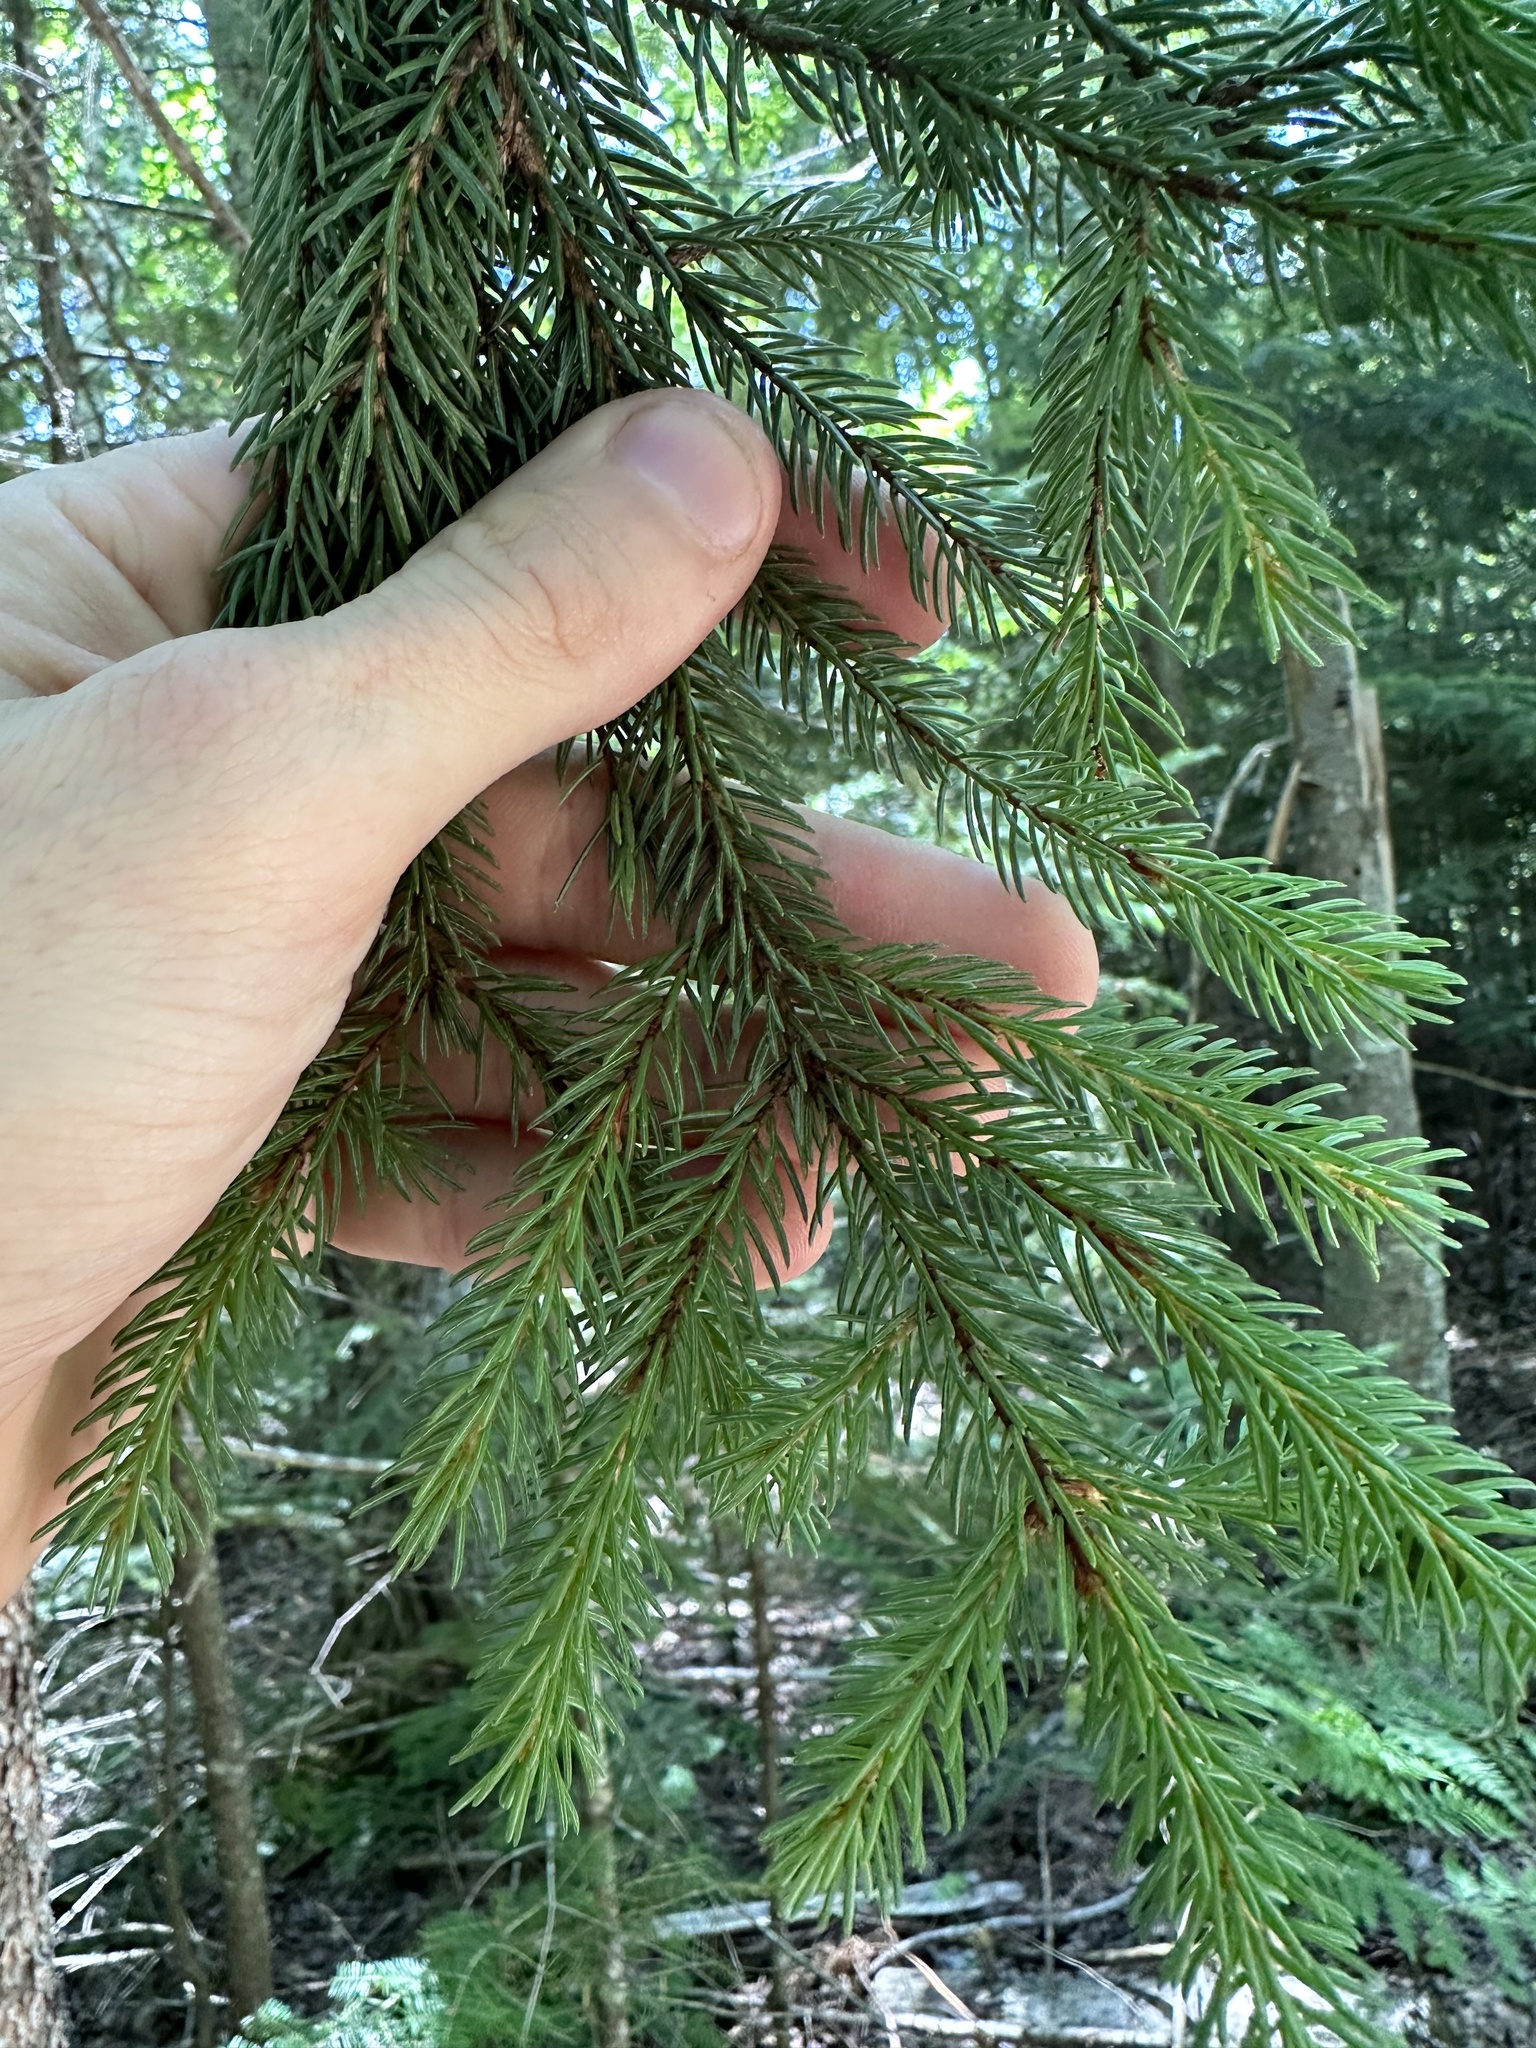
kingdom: Plantae
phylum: Tracheophyta
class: Pinopsida
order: Pinales
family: Pinaceae
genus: Picea
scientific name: Picea mariana
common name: Black spruce
